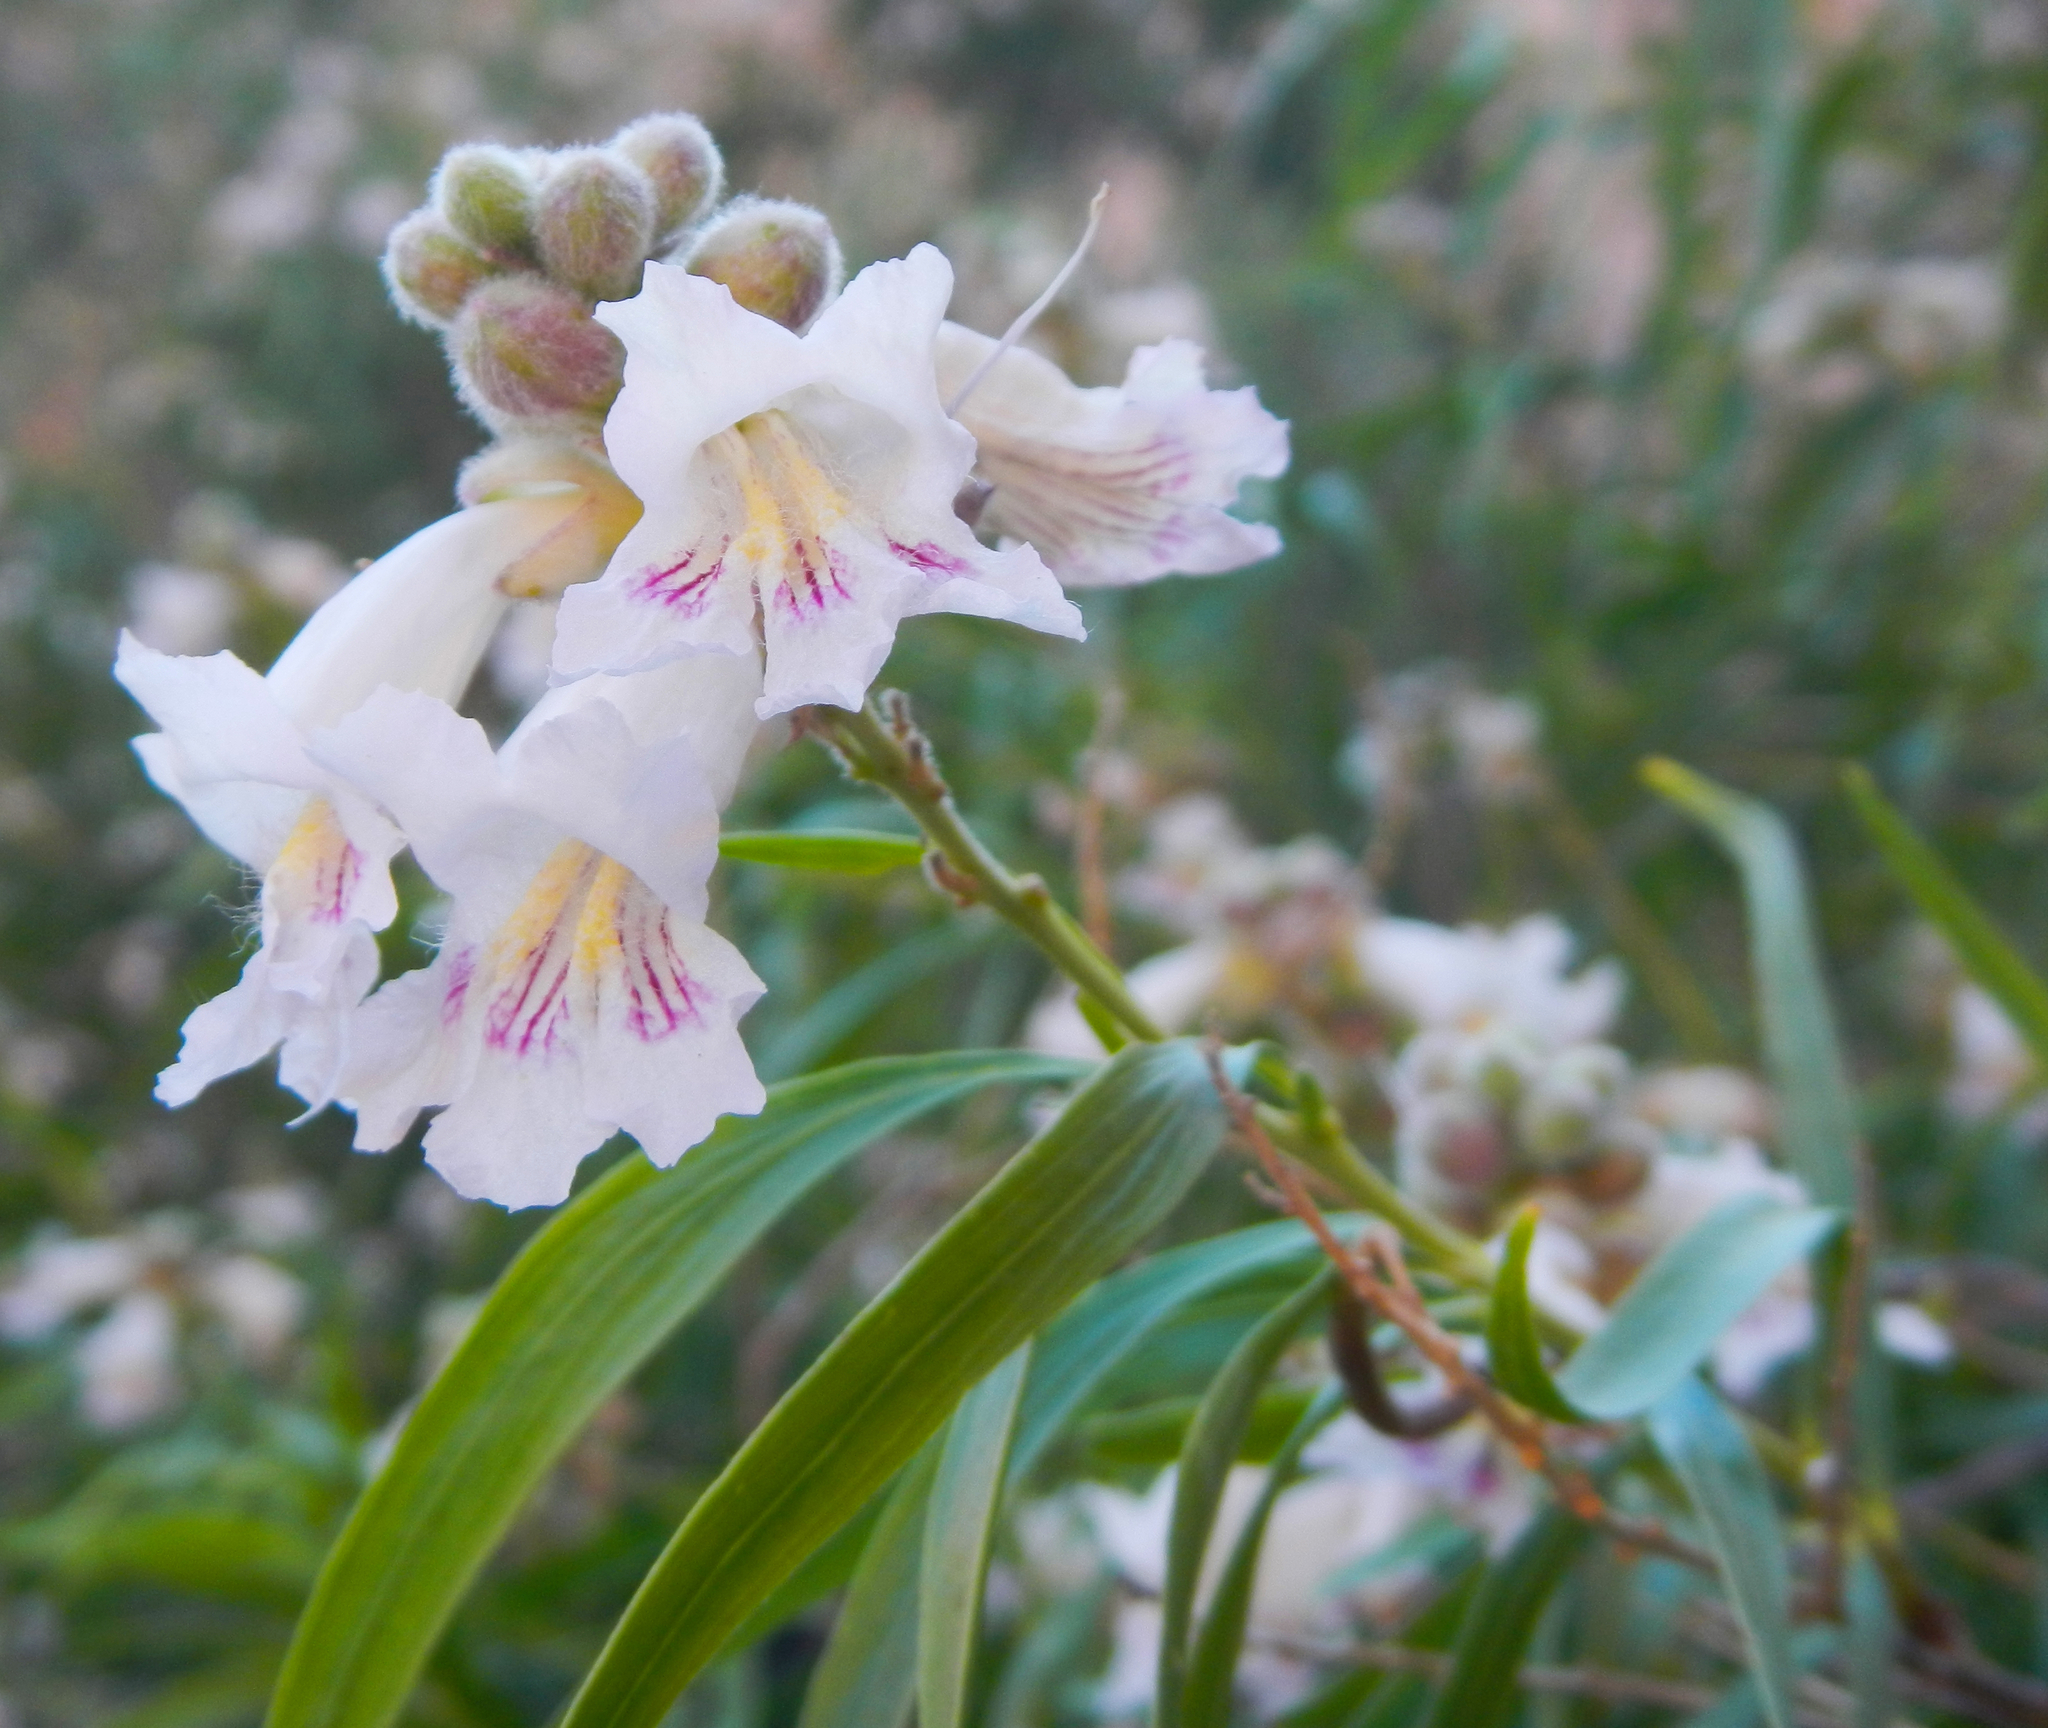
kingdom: Plantae
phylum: Tracheophyta
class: Magnoliopsida
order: Lamiales
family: Bignoniaceae
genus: Chilopsis
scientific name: Chilopsis linearis
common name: Desert-willow
